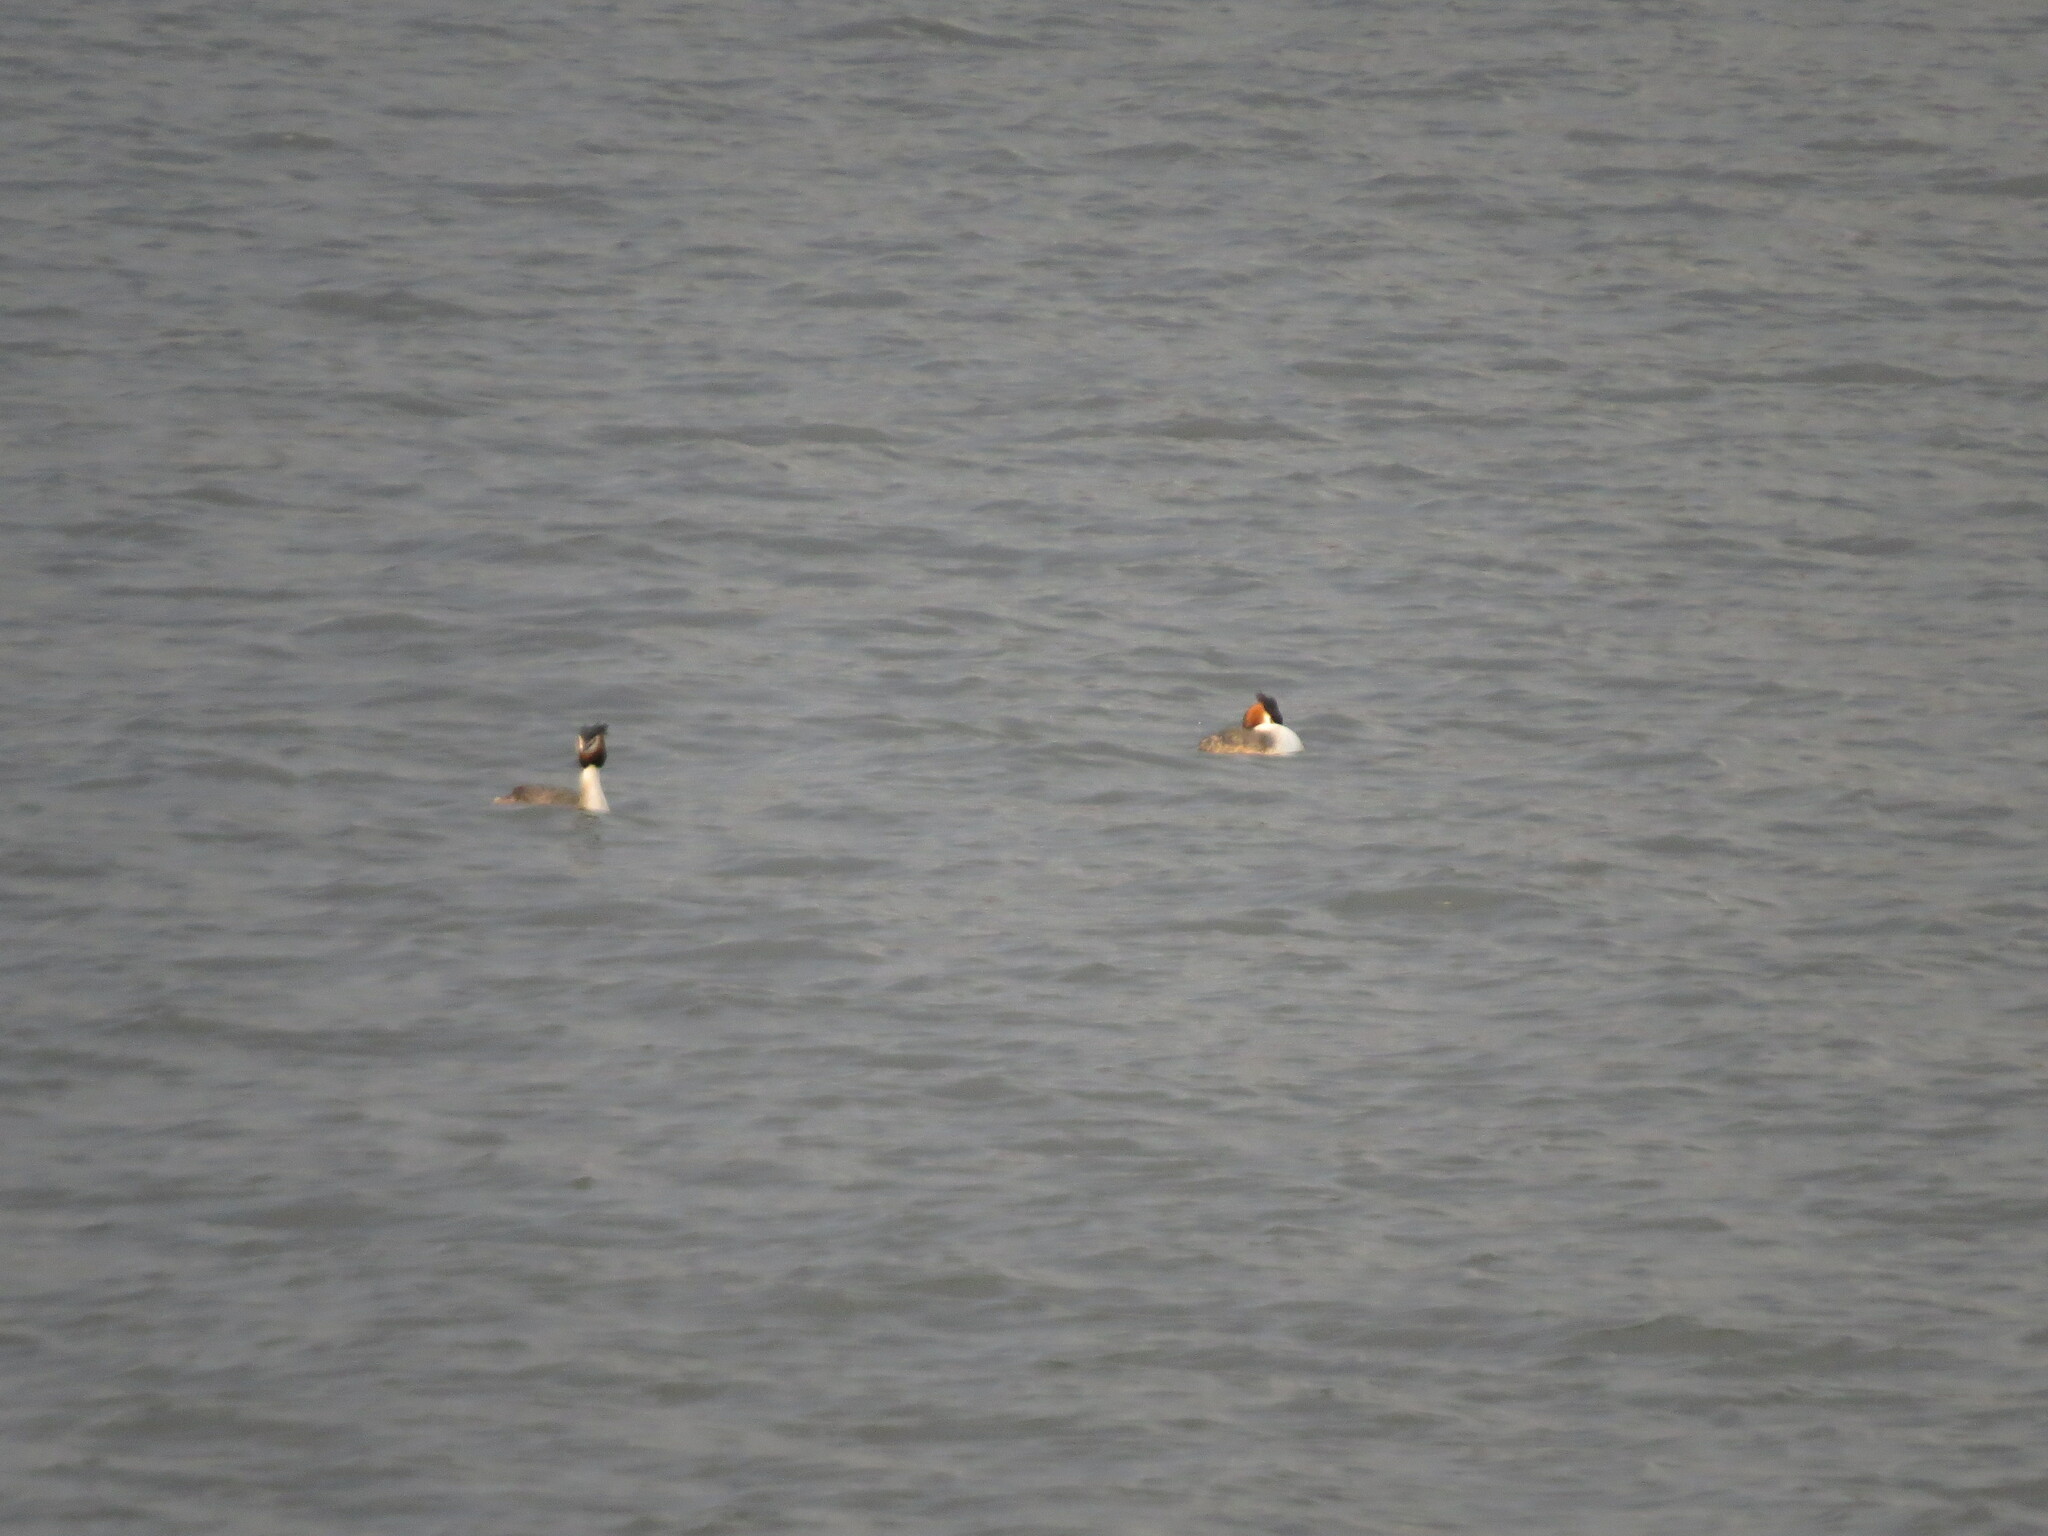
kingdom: Animalia
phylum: Chordata
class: Aves
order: Podicipediformes
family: Podicipedidae
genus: Podiceps
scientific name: Podiceps cristatus
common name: Great crested grebe
